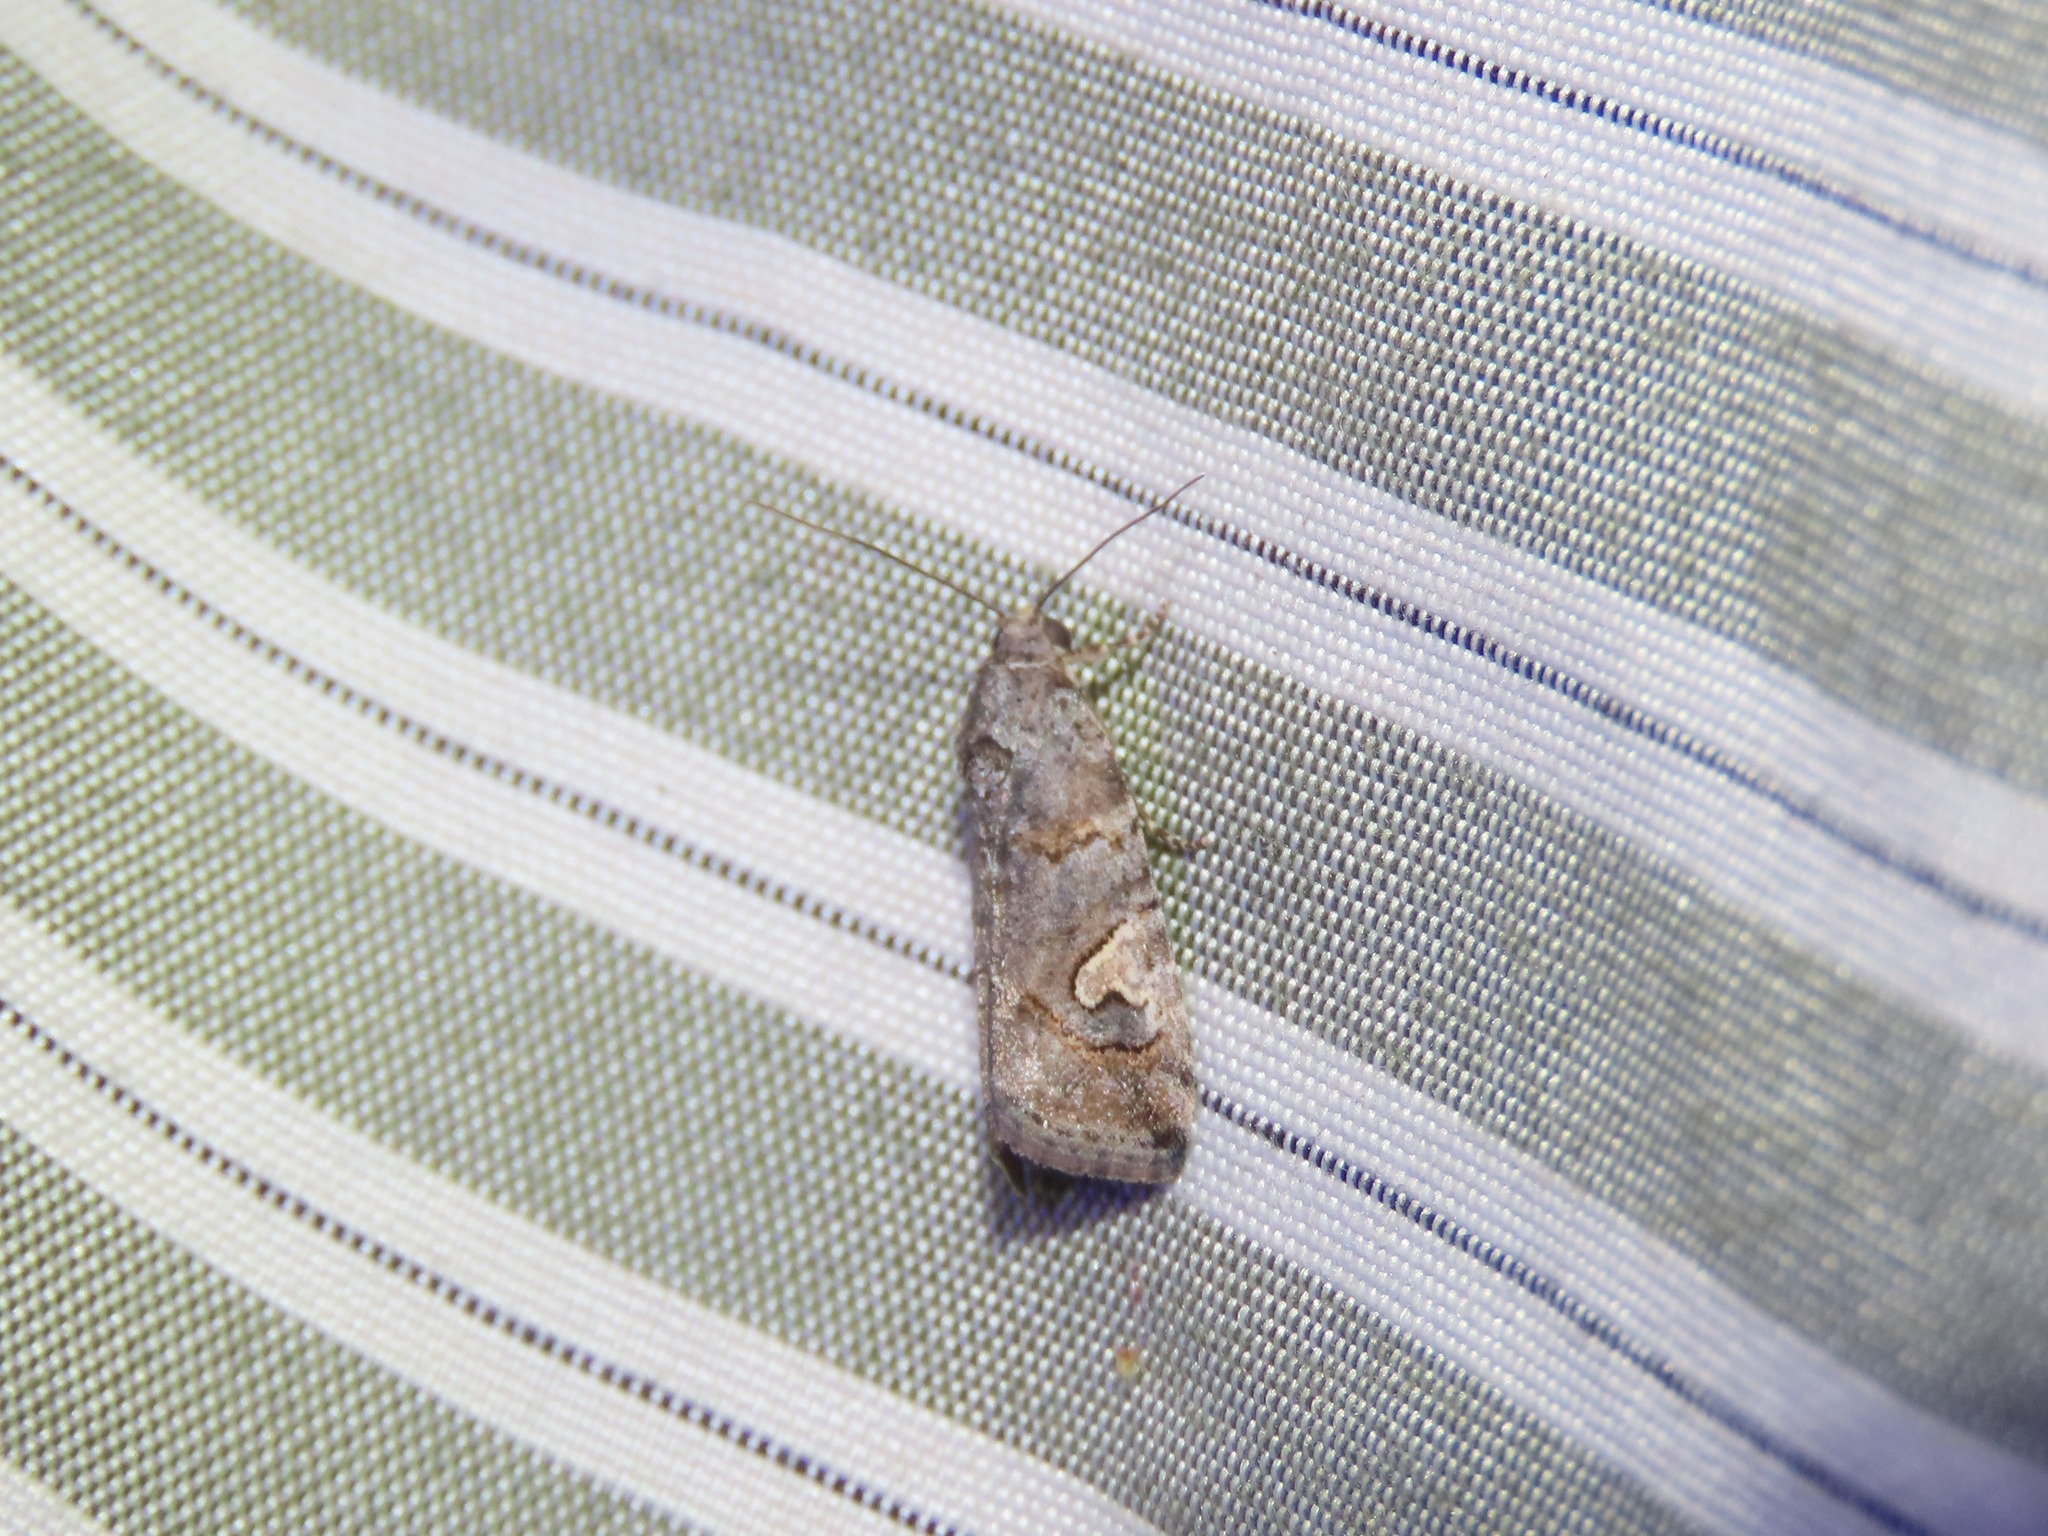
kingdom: Animalia
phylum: Arthropoda
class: Insecta
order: Lepidoptera
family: Noctuidae
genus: Metaponpneumata
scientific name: Metaponpneumata rogenhoferi
